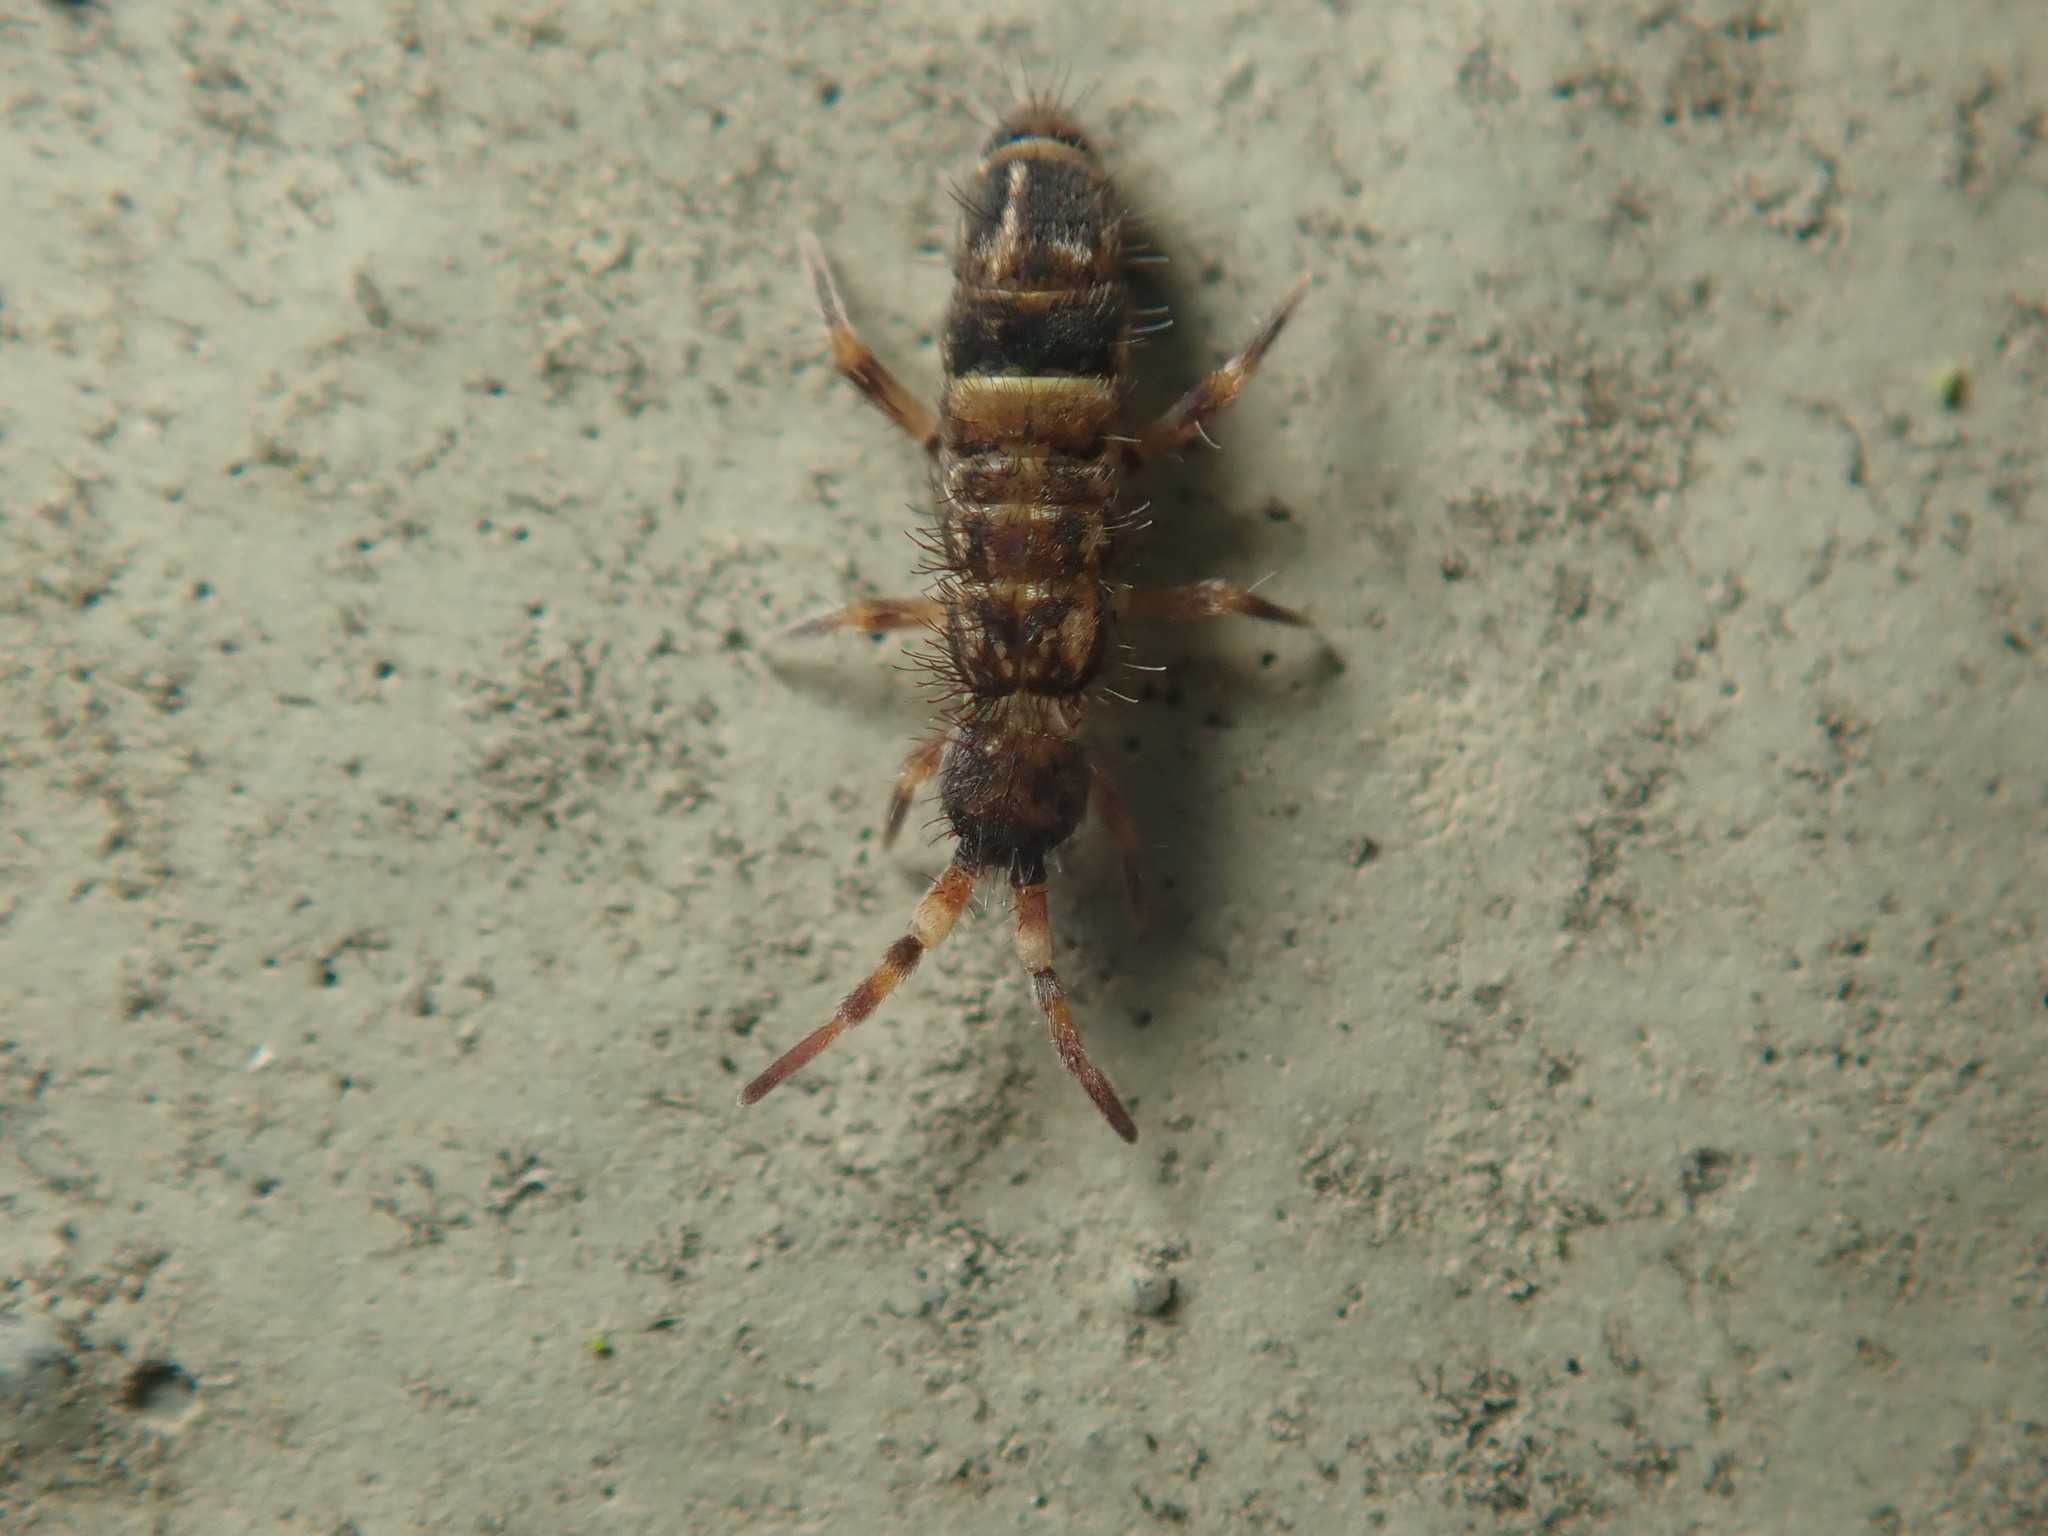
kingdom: Animalia
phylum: Arthropoda
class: Collembola
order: Entomobryomorpha
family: Orchesellidae
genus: Orchesella
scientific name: Orchesella cincta
